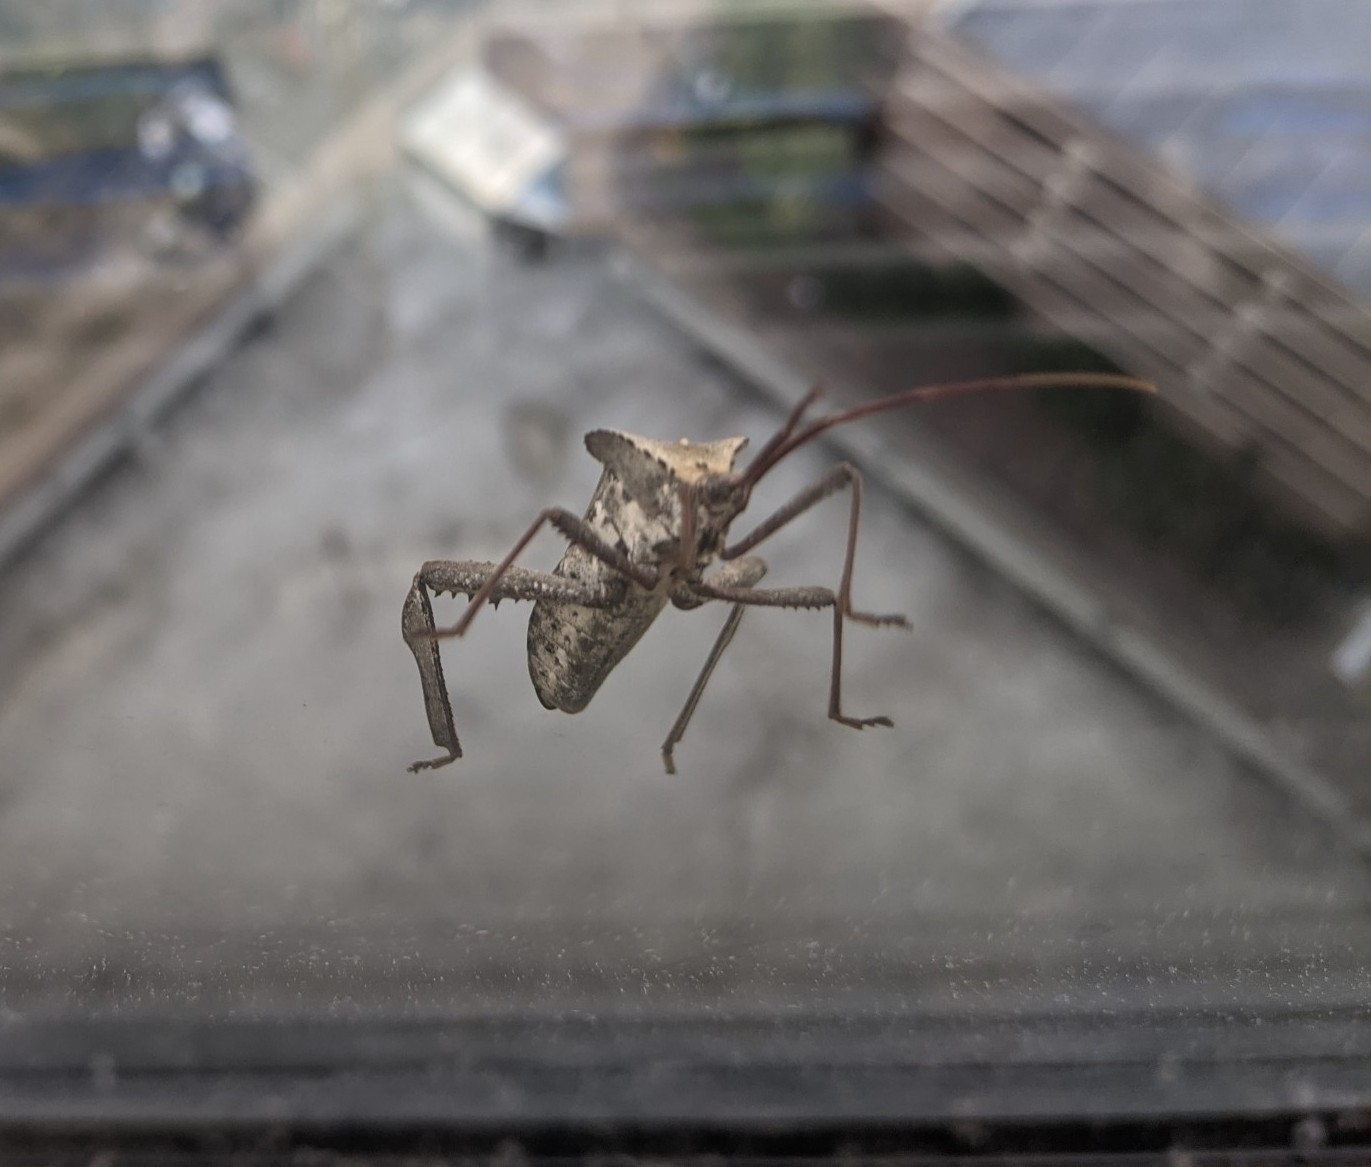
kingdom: Animalia
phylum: Arthropoda
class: Insecta
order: Hemiptera
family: Coreidae
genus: Acanthocephala
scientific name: Acanthocephala declivis
